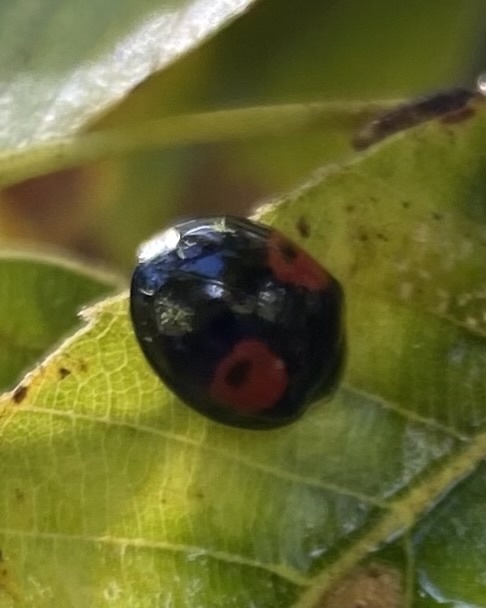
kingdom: Animalia
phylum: Arthropoda
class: Insecta
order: Coleoptera
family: Coccinellidae
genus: Harmonia
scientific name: Harmonia axyridis
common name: Harlequin ladybird
